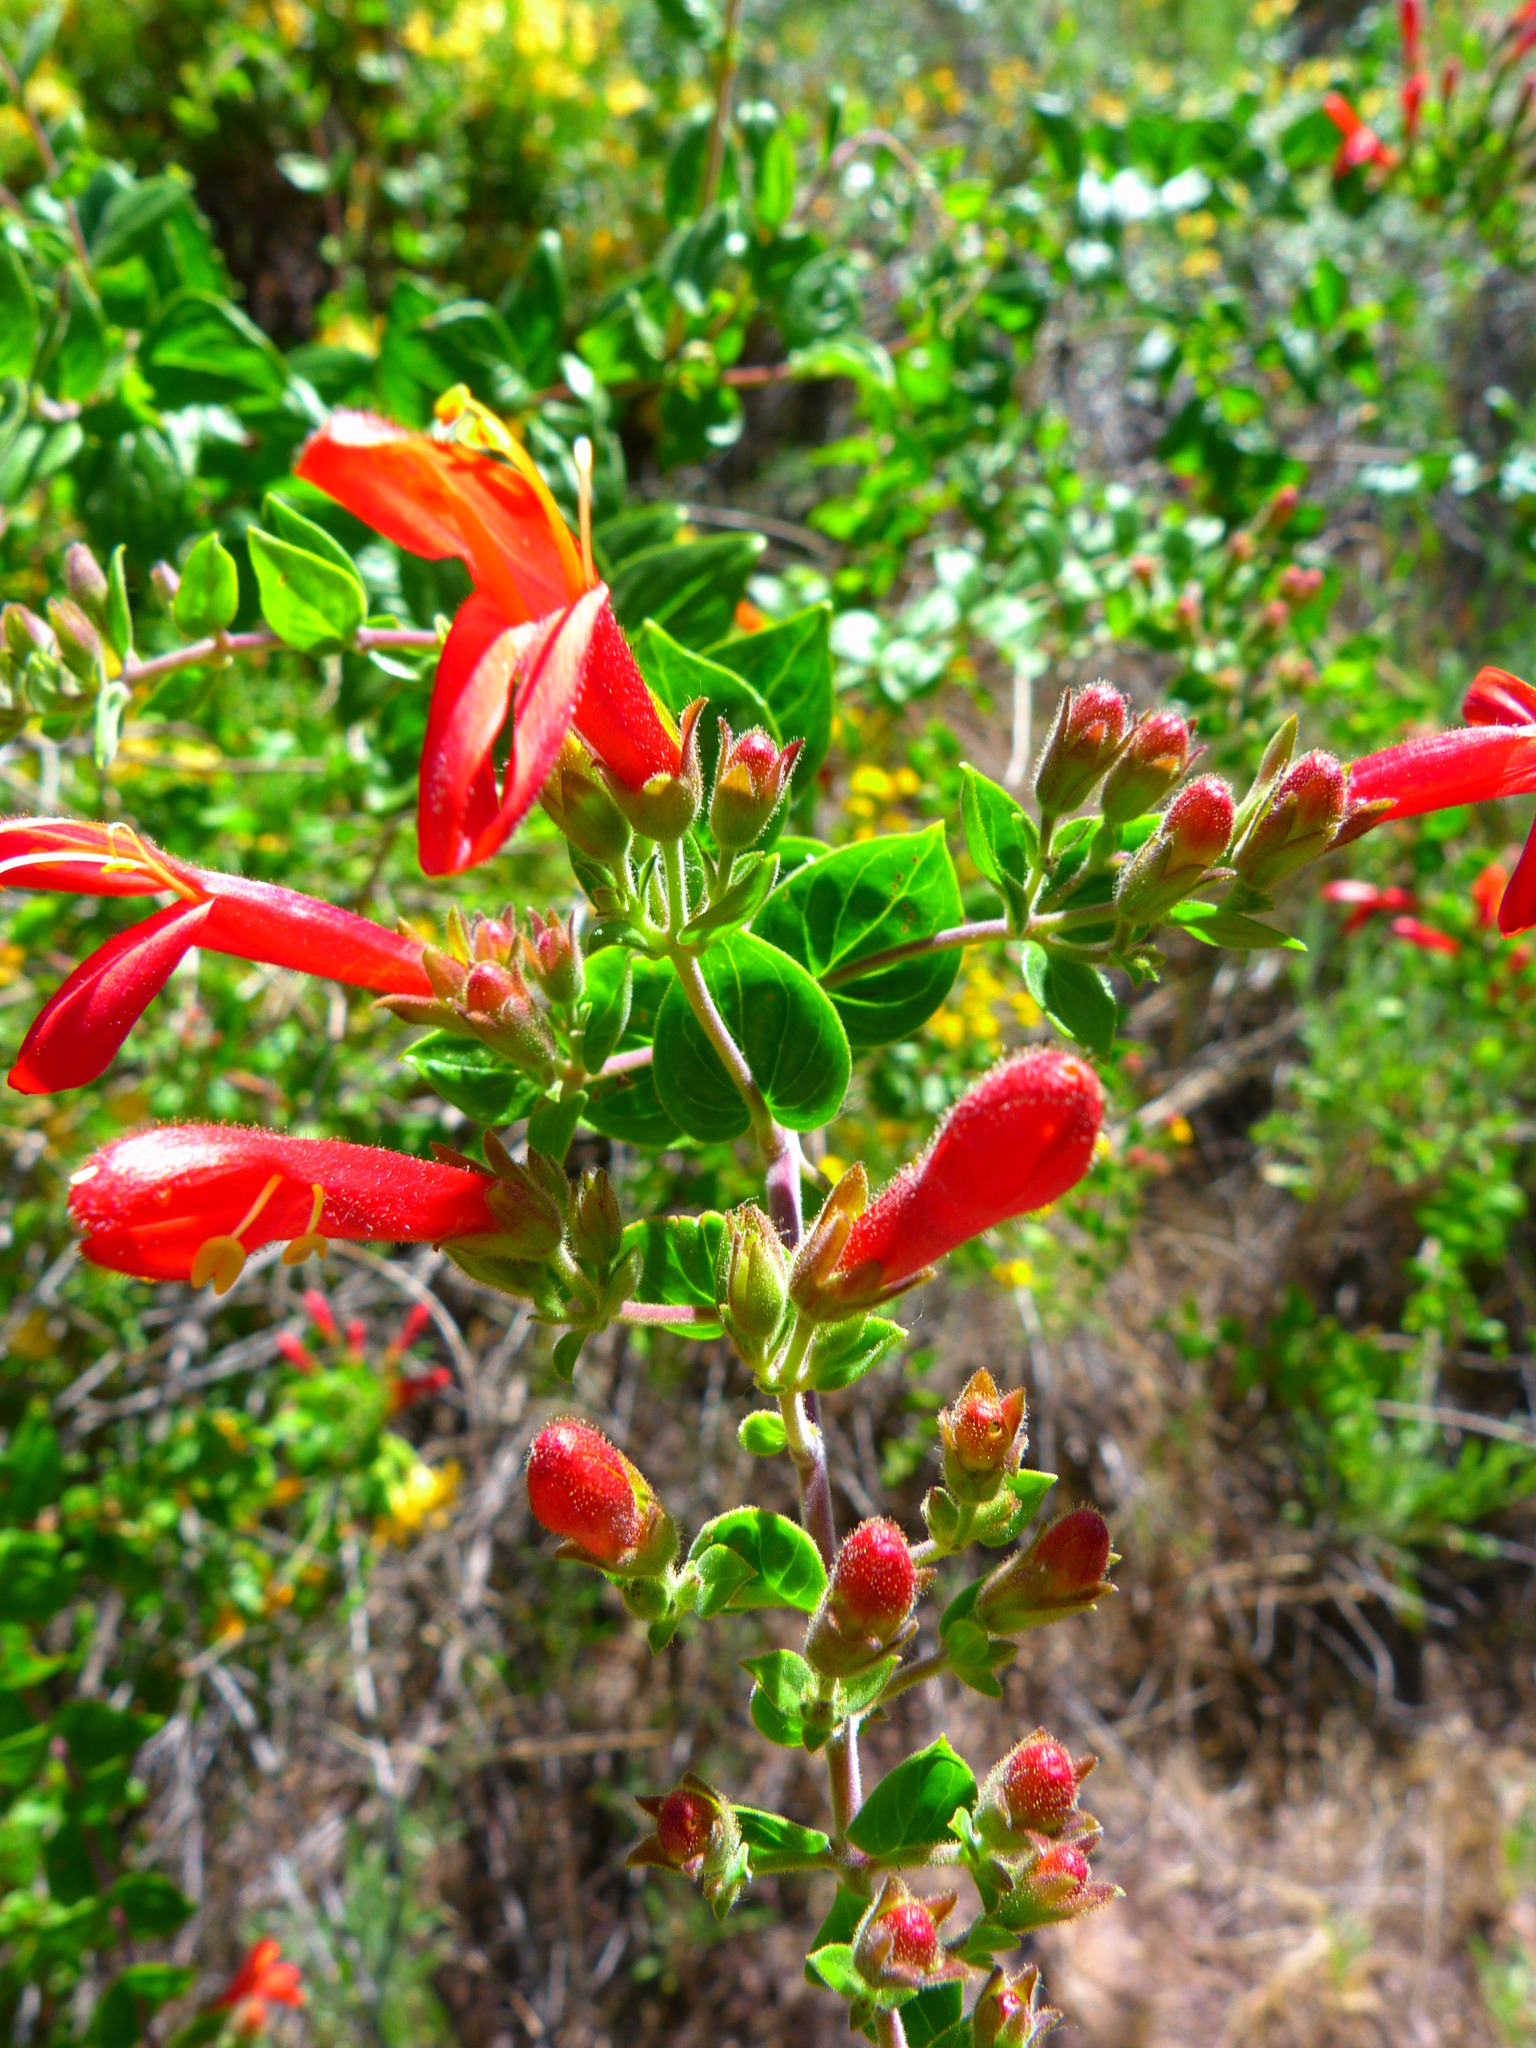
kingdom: Plantae
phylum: Tracheophyta
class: Magnoliopsida
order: Lamiales
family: Plantaginaceae
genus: Keckiella
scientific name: Keckiella cordifolia
